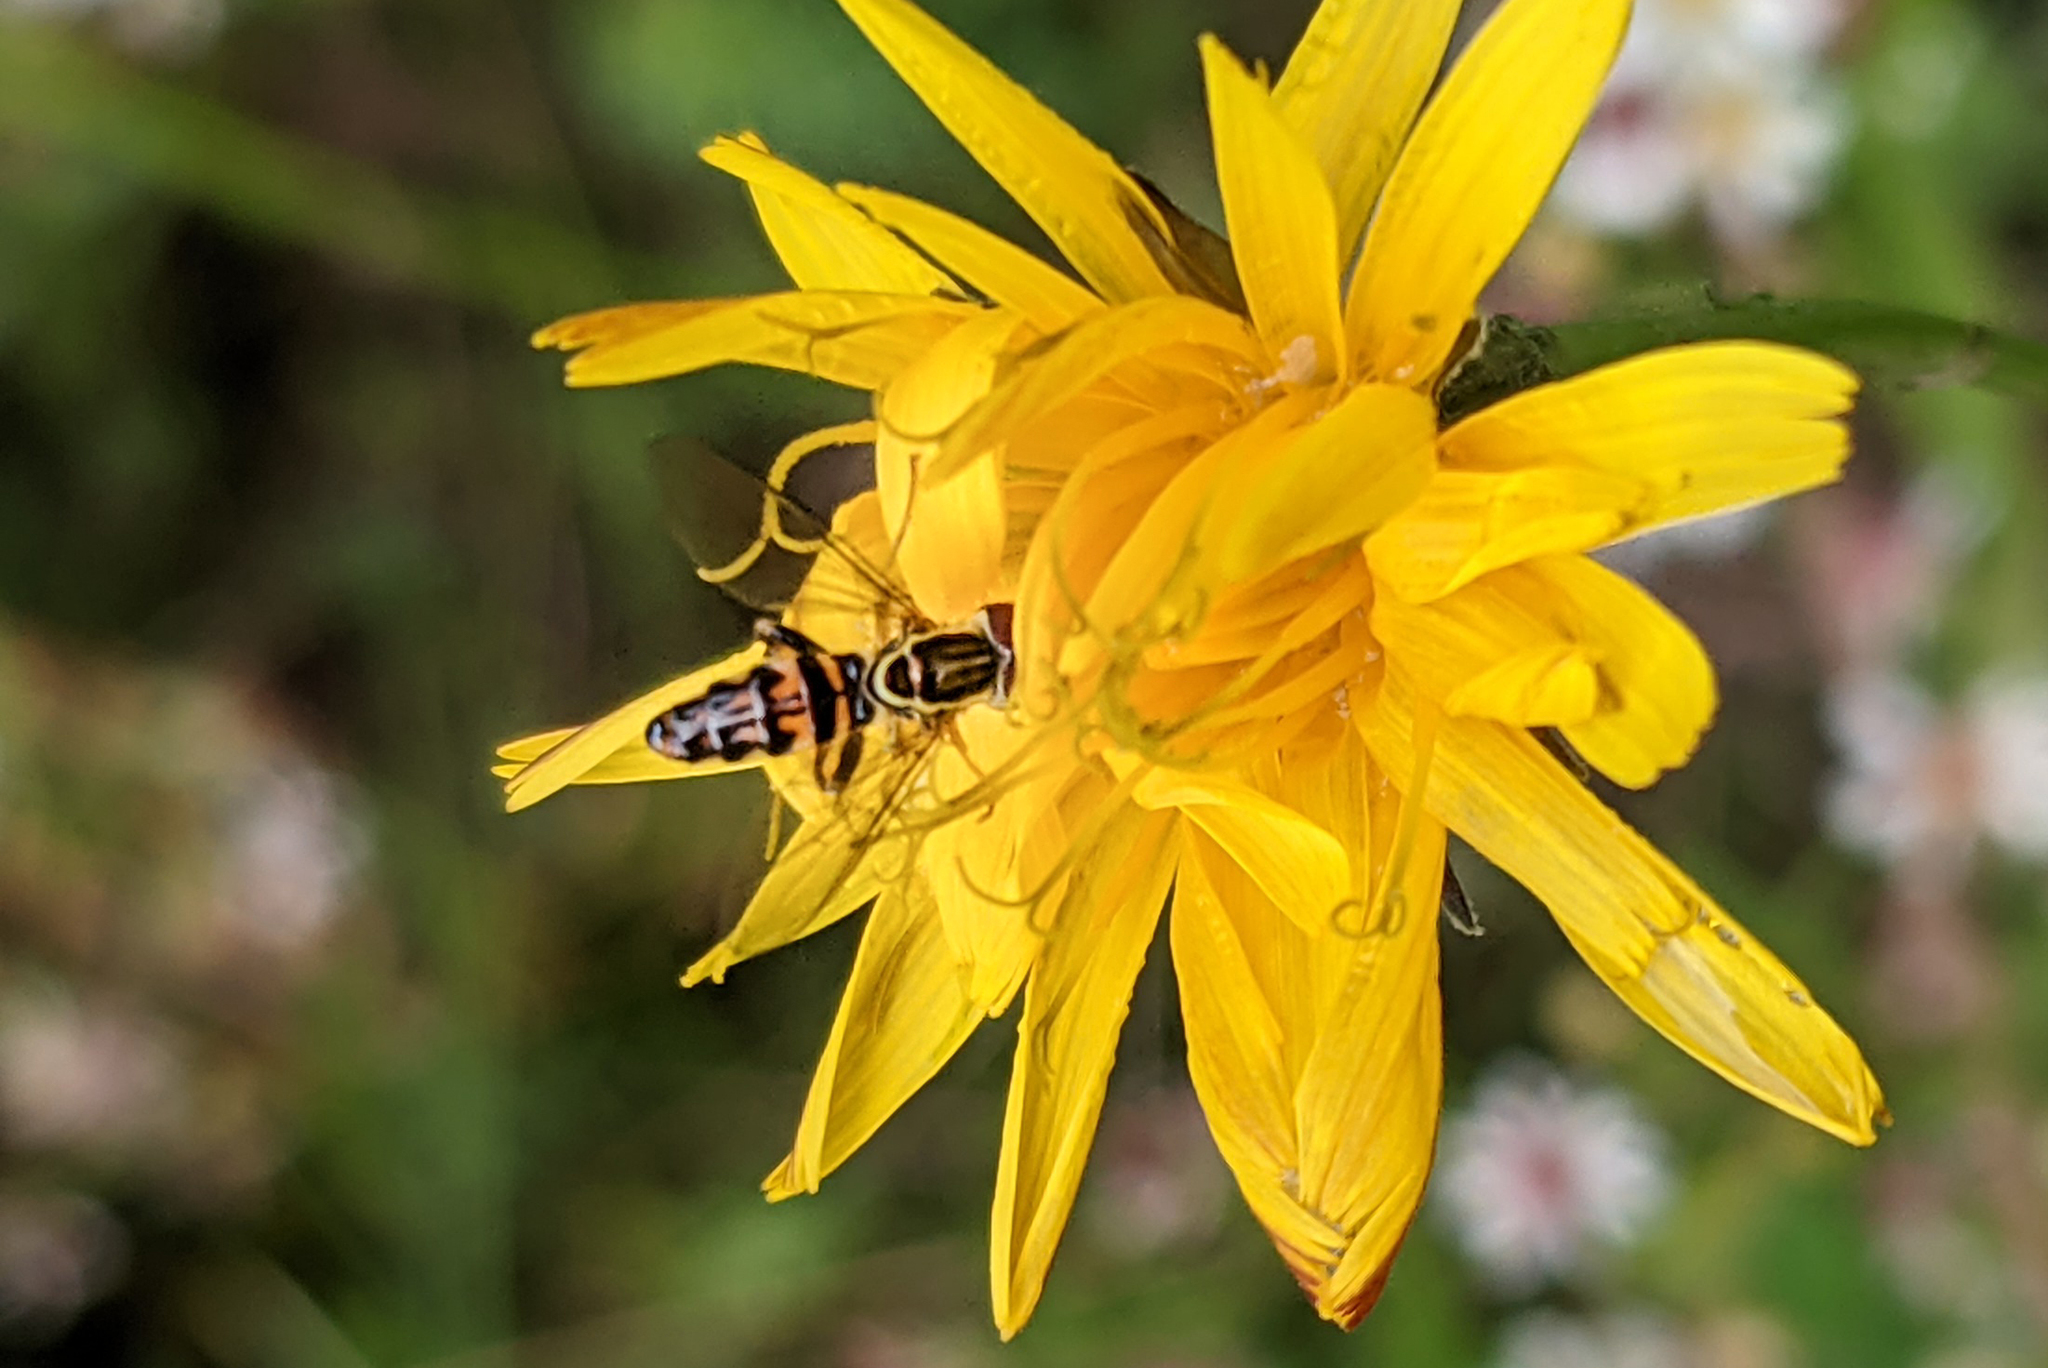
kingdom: Animalia
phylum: Arthropoda
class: Insecta
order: Diptera
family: Syrphidae
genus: Toxomerus
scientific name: Toxomerus geminatus
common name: Eastern calligrapher
